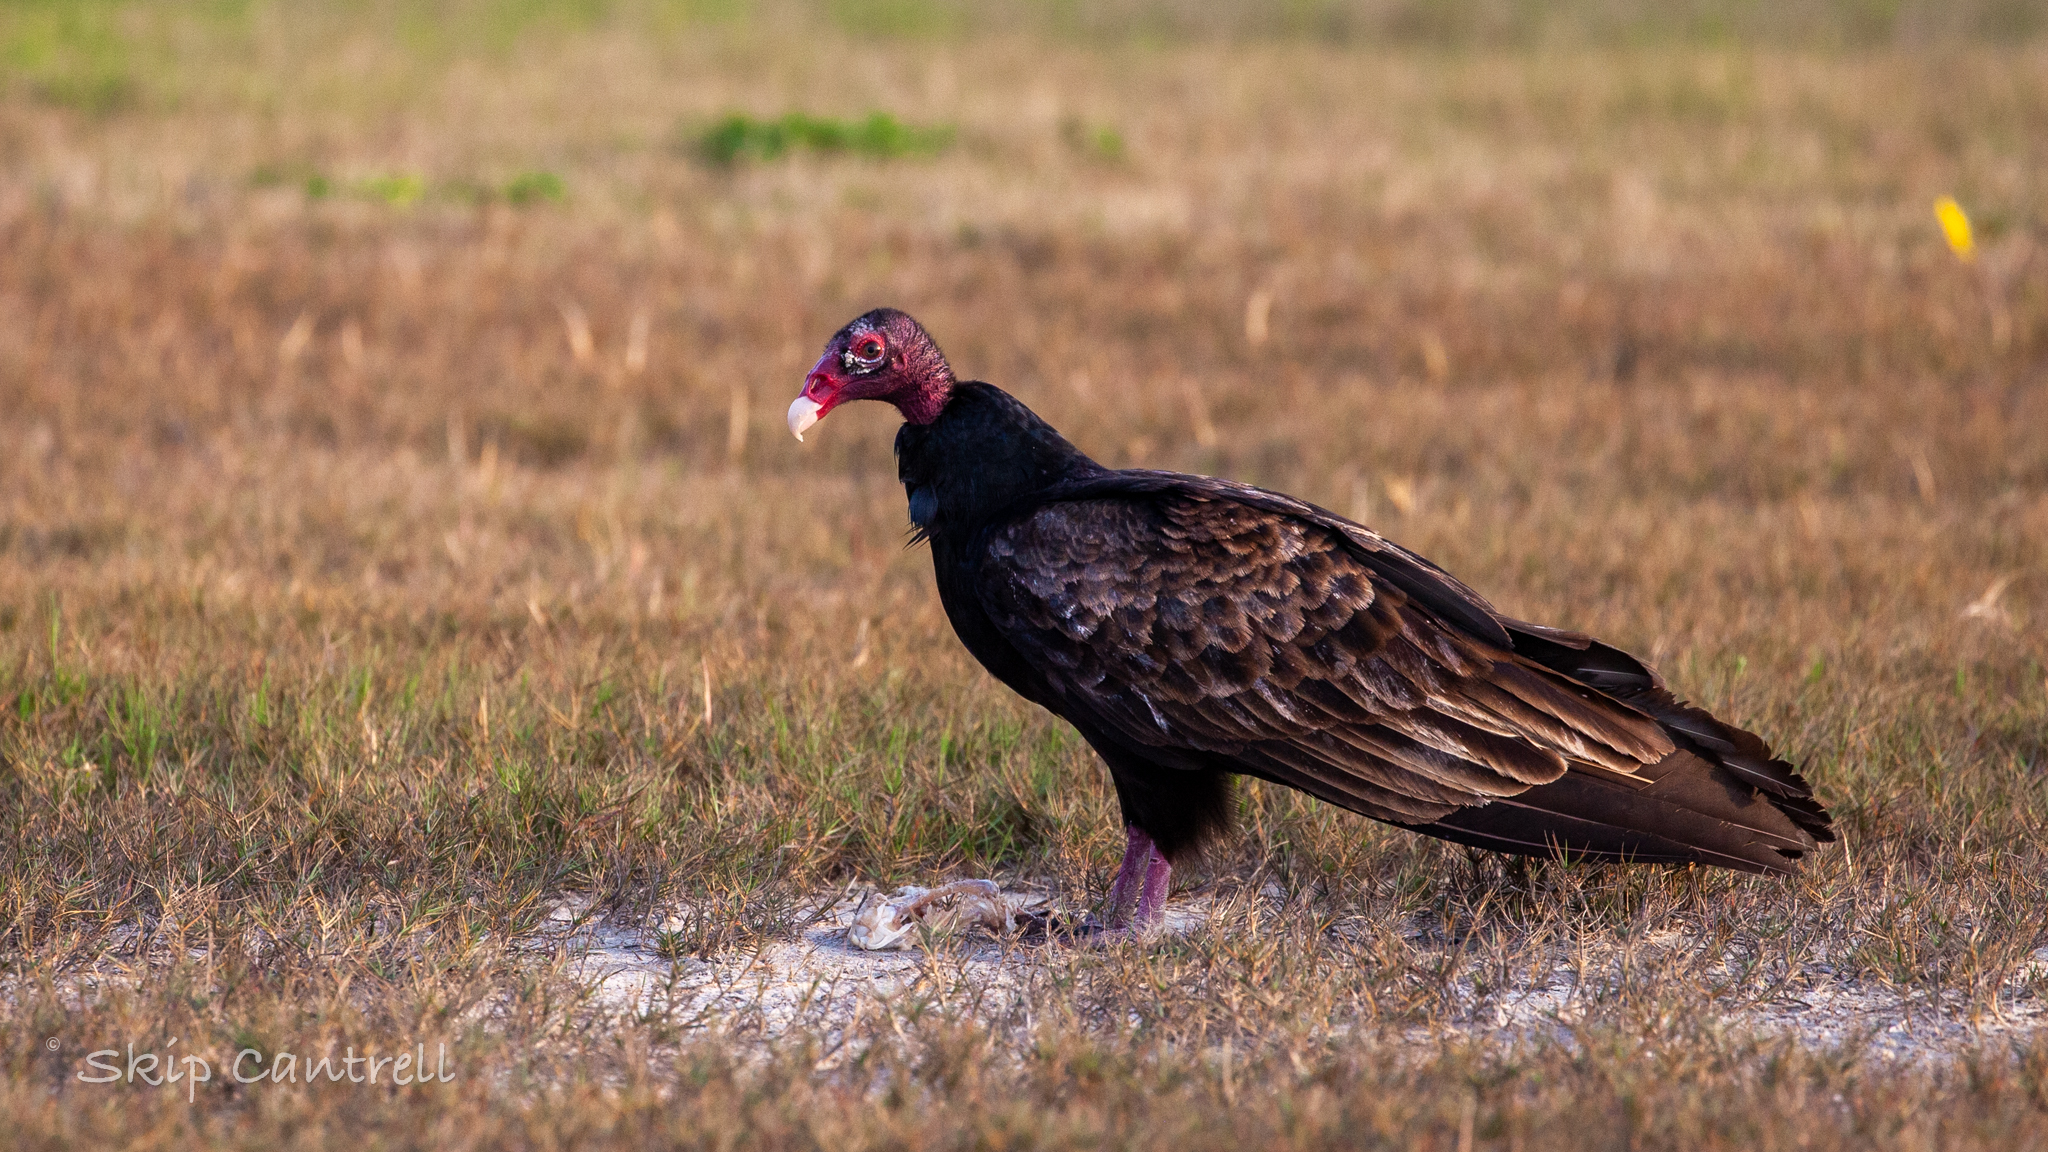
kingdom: Animalia
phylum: Chordata
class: Aves
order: Accipitriformes
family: Cathartidae
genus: Cathartes
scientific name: Cathartes aura
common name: Turkey vulture
